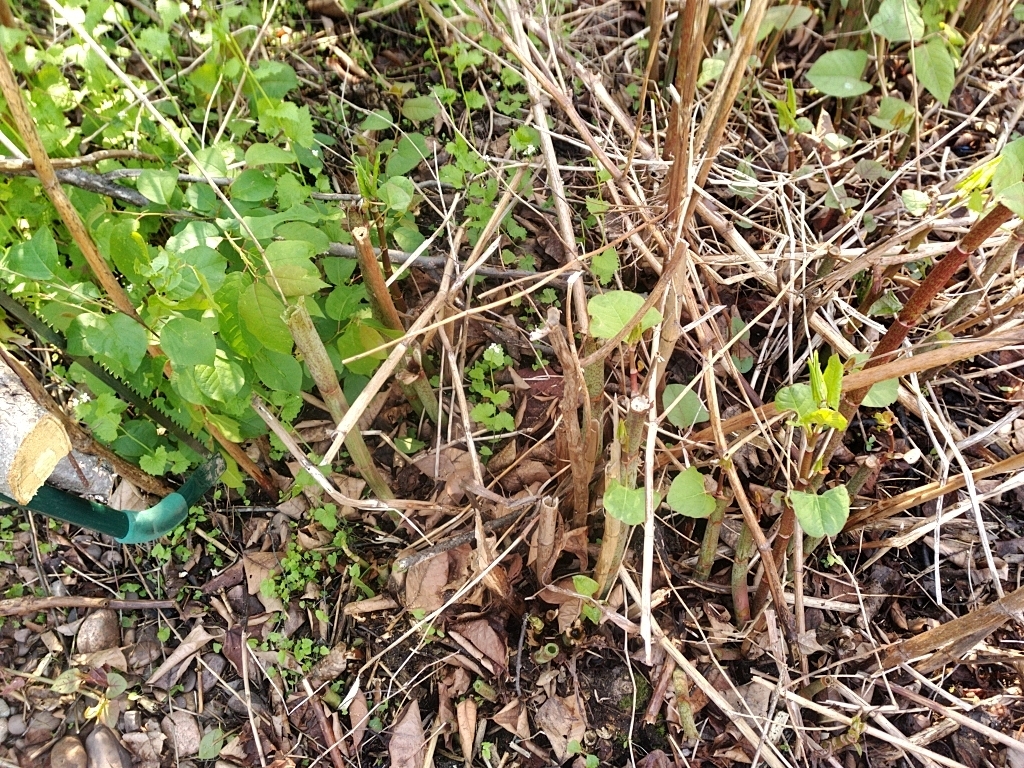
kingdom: Plantae
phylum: Tracheophyta
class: Magnoliopsida
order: Caryophyllales
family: Polygonaceae
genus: Reynoutria
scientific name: Reynoutria japonica
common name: Japanese knotweed
